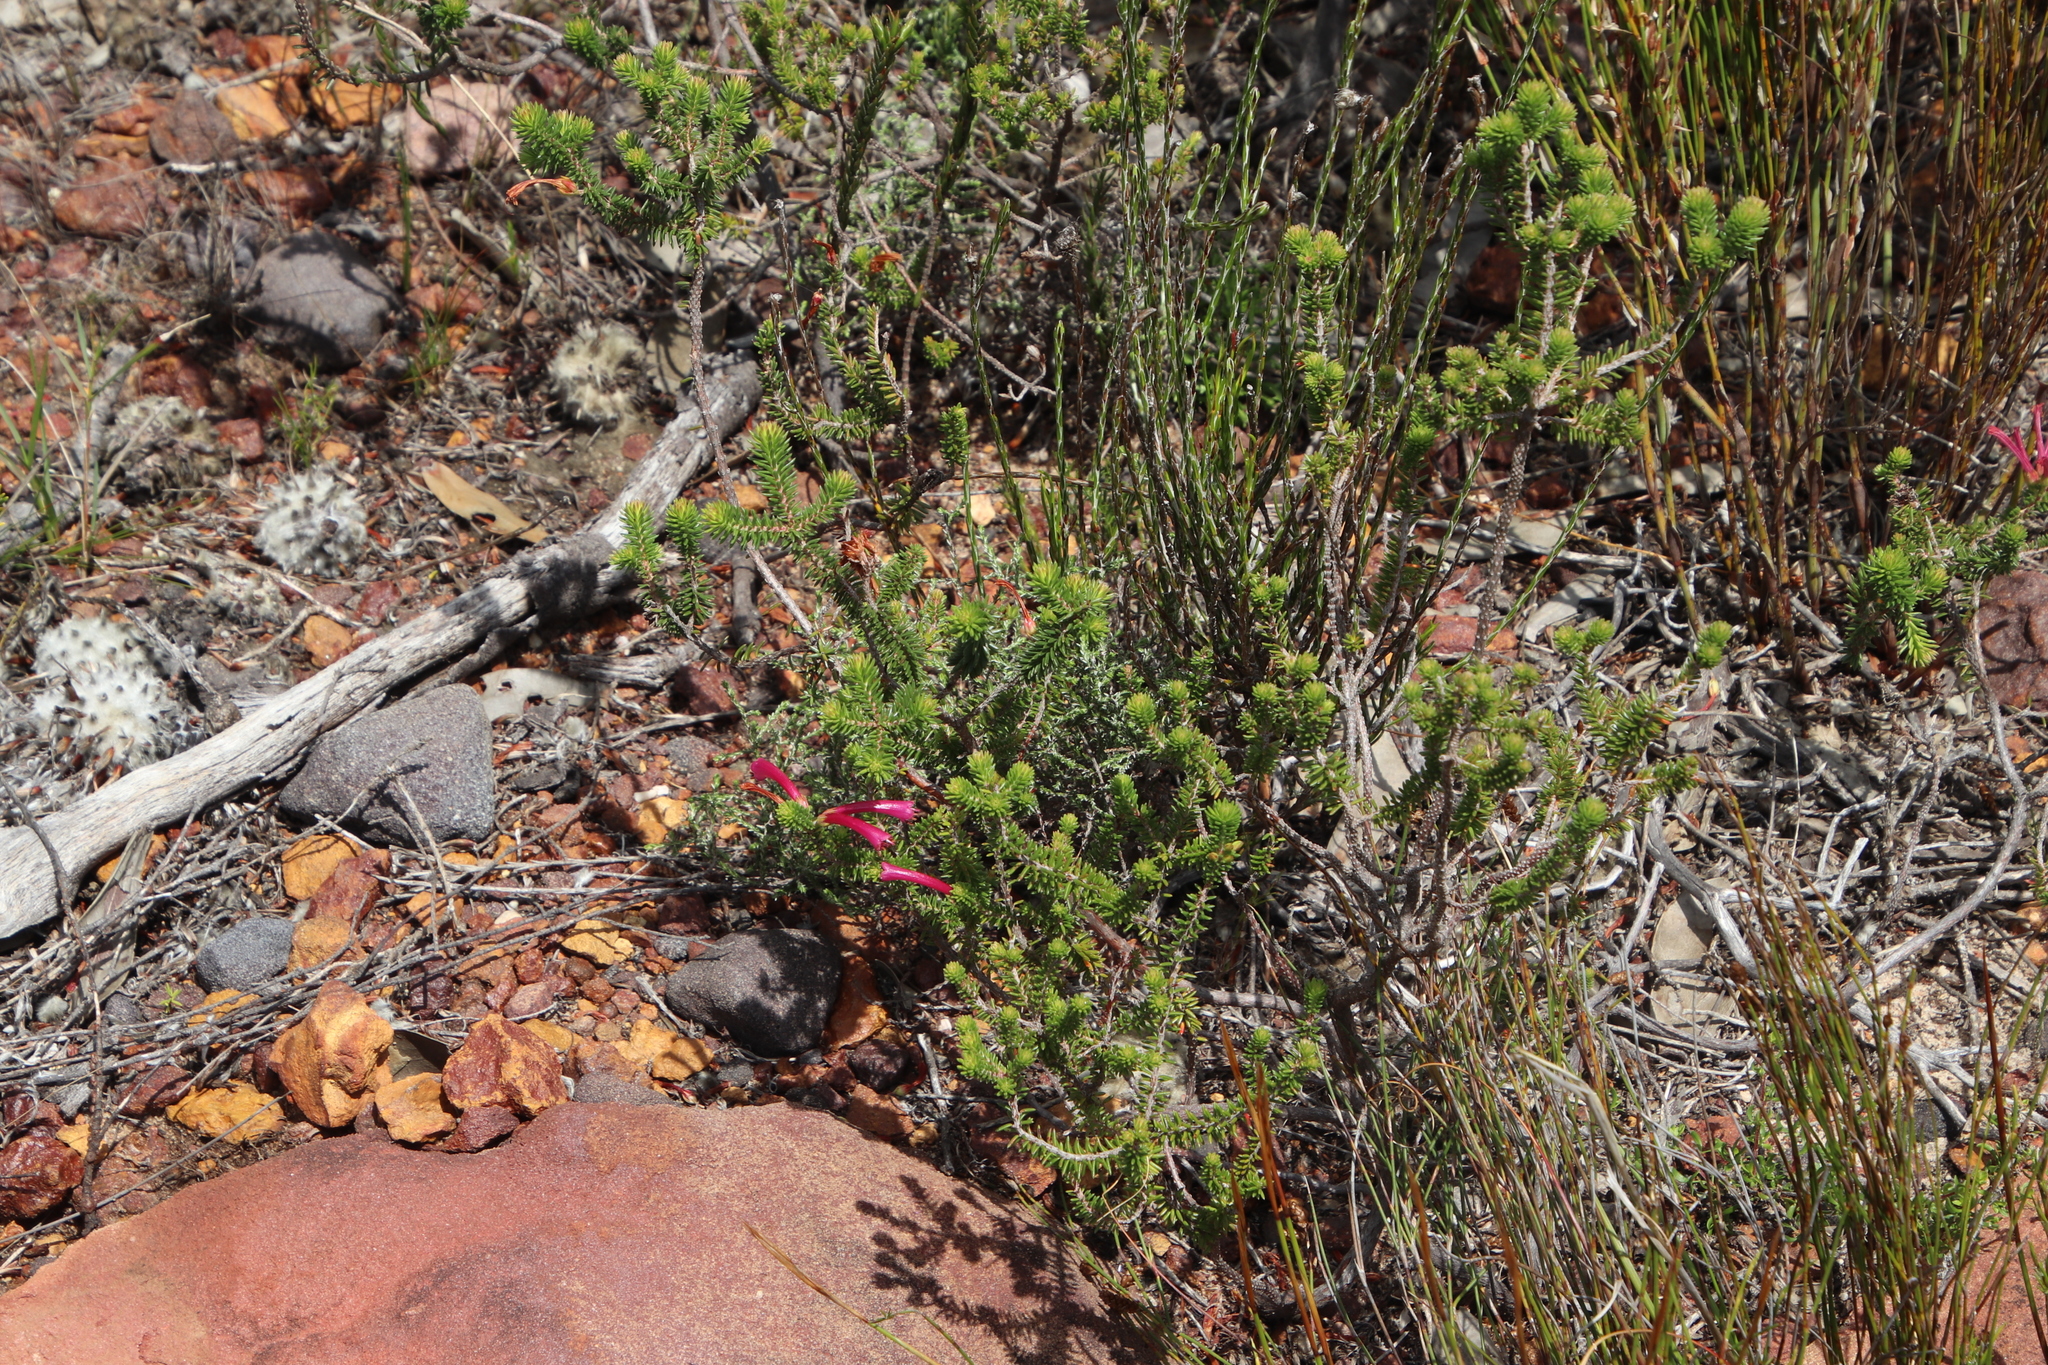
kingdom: Plantae
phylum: Tracheophyta
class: Magnoliopsida
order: Ericales
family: Ericaceae
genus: Erica
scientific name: Erica abietina
